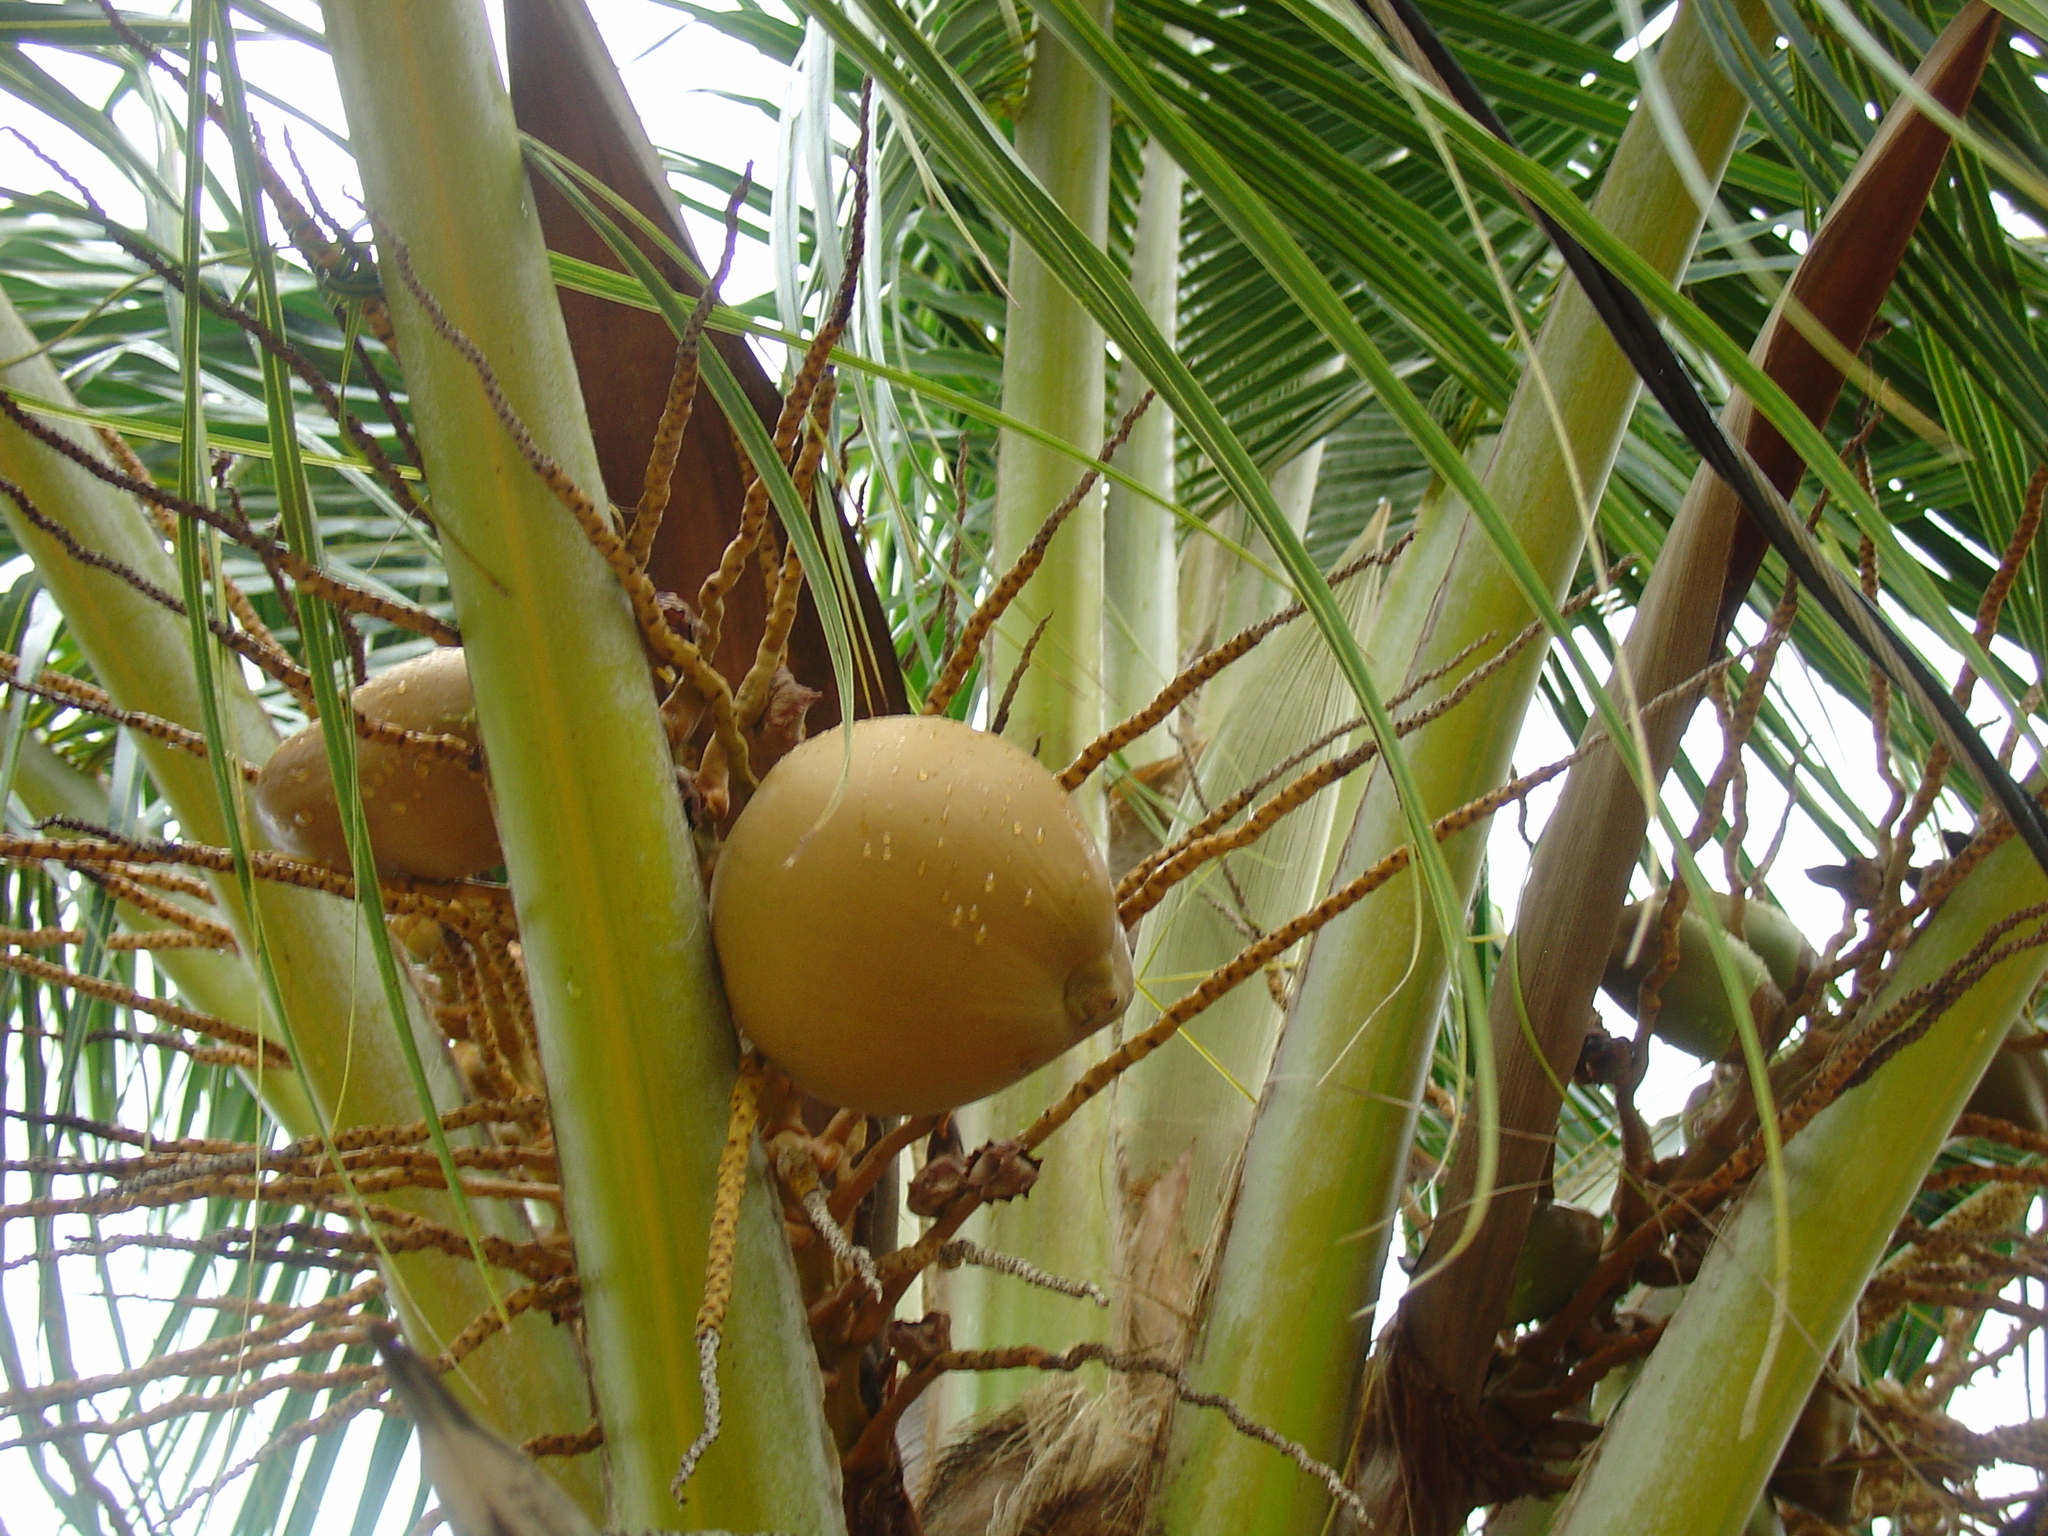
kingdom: Plantae
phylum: Tracheophyta
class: Liliopsida
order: Arecales
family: Arecaceae
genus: Cocos
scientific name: Cocos nucifera
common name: Coconut palm
